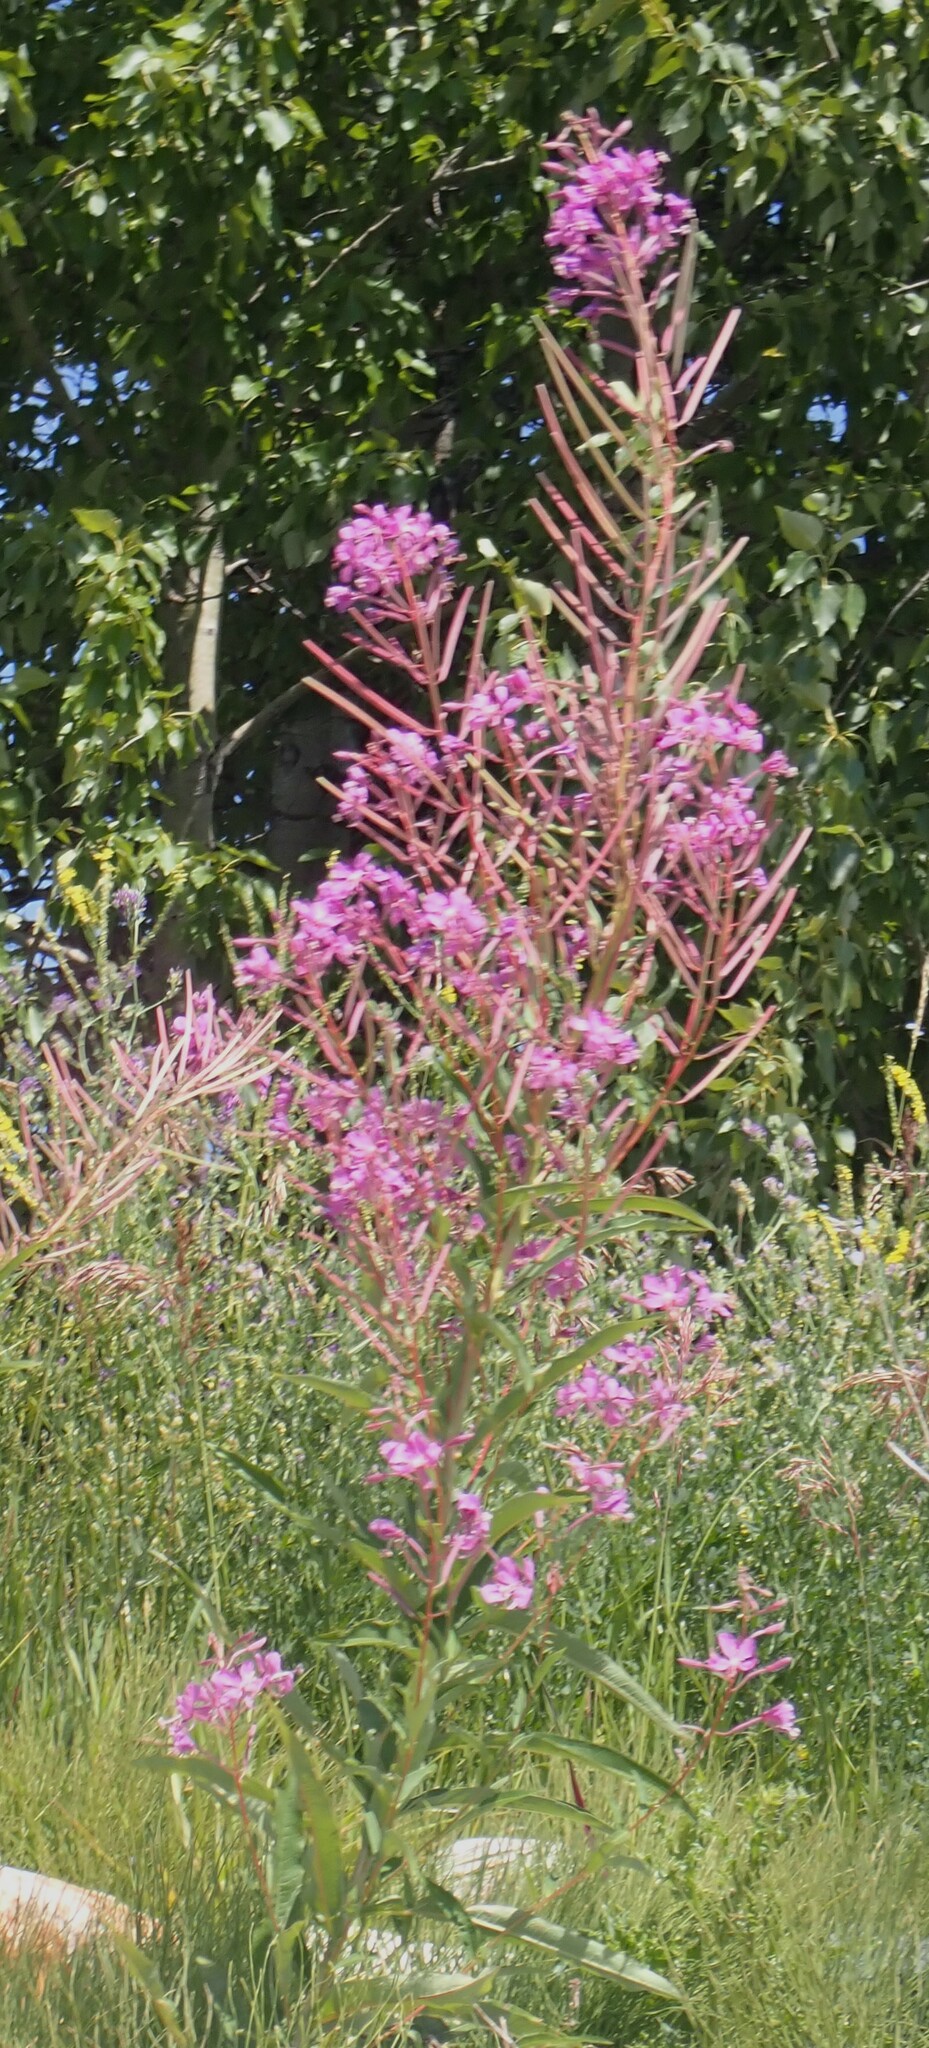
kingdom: Plantae
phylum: Tracheophyta
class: Magnoliopsida
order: Myrtales
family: Onagraceae
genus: Chamaenerion
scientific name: Chamaenerion angustifolium
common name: Fireweed
